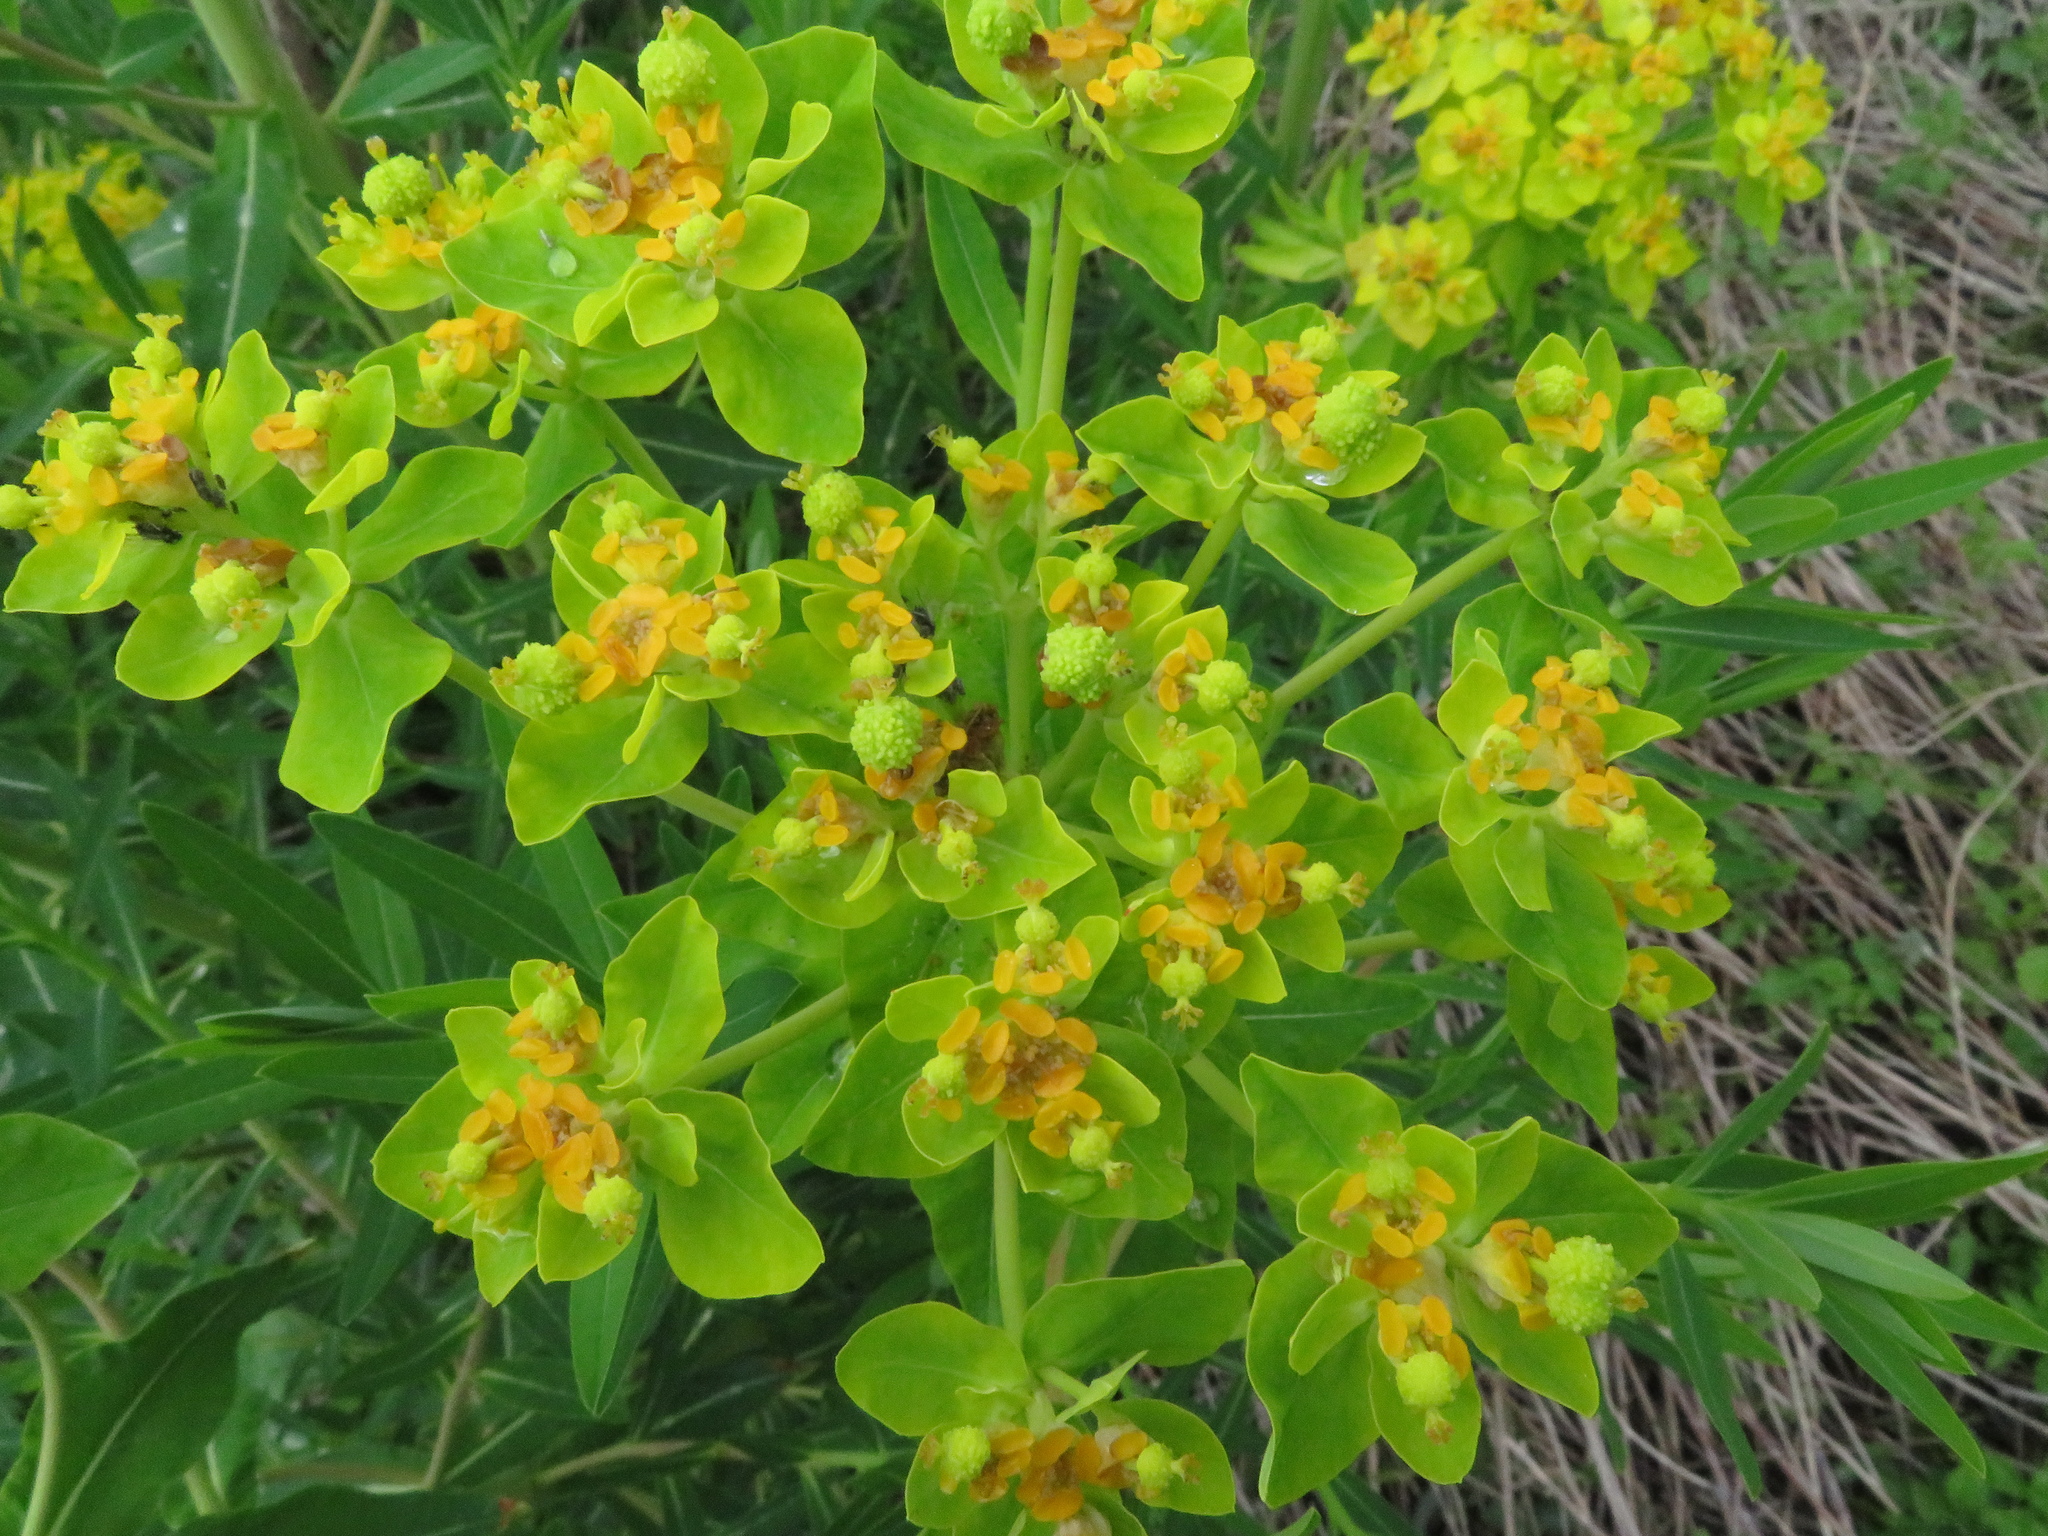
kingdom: Plantae
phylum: Tracheophyta
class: Magnoliopsida
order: Malpighiales
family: Euphorbiaceae
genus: Euphorbia
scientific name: Euphorbia palustris
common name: Marsh spurge
